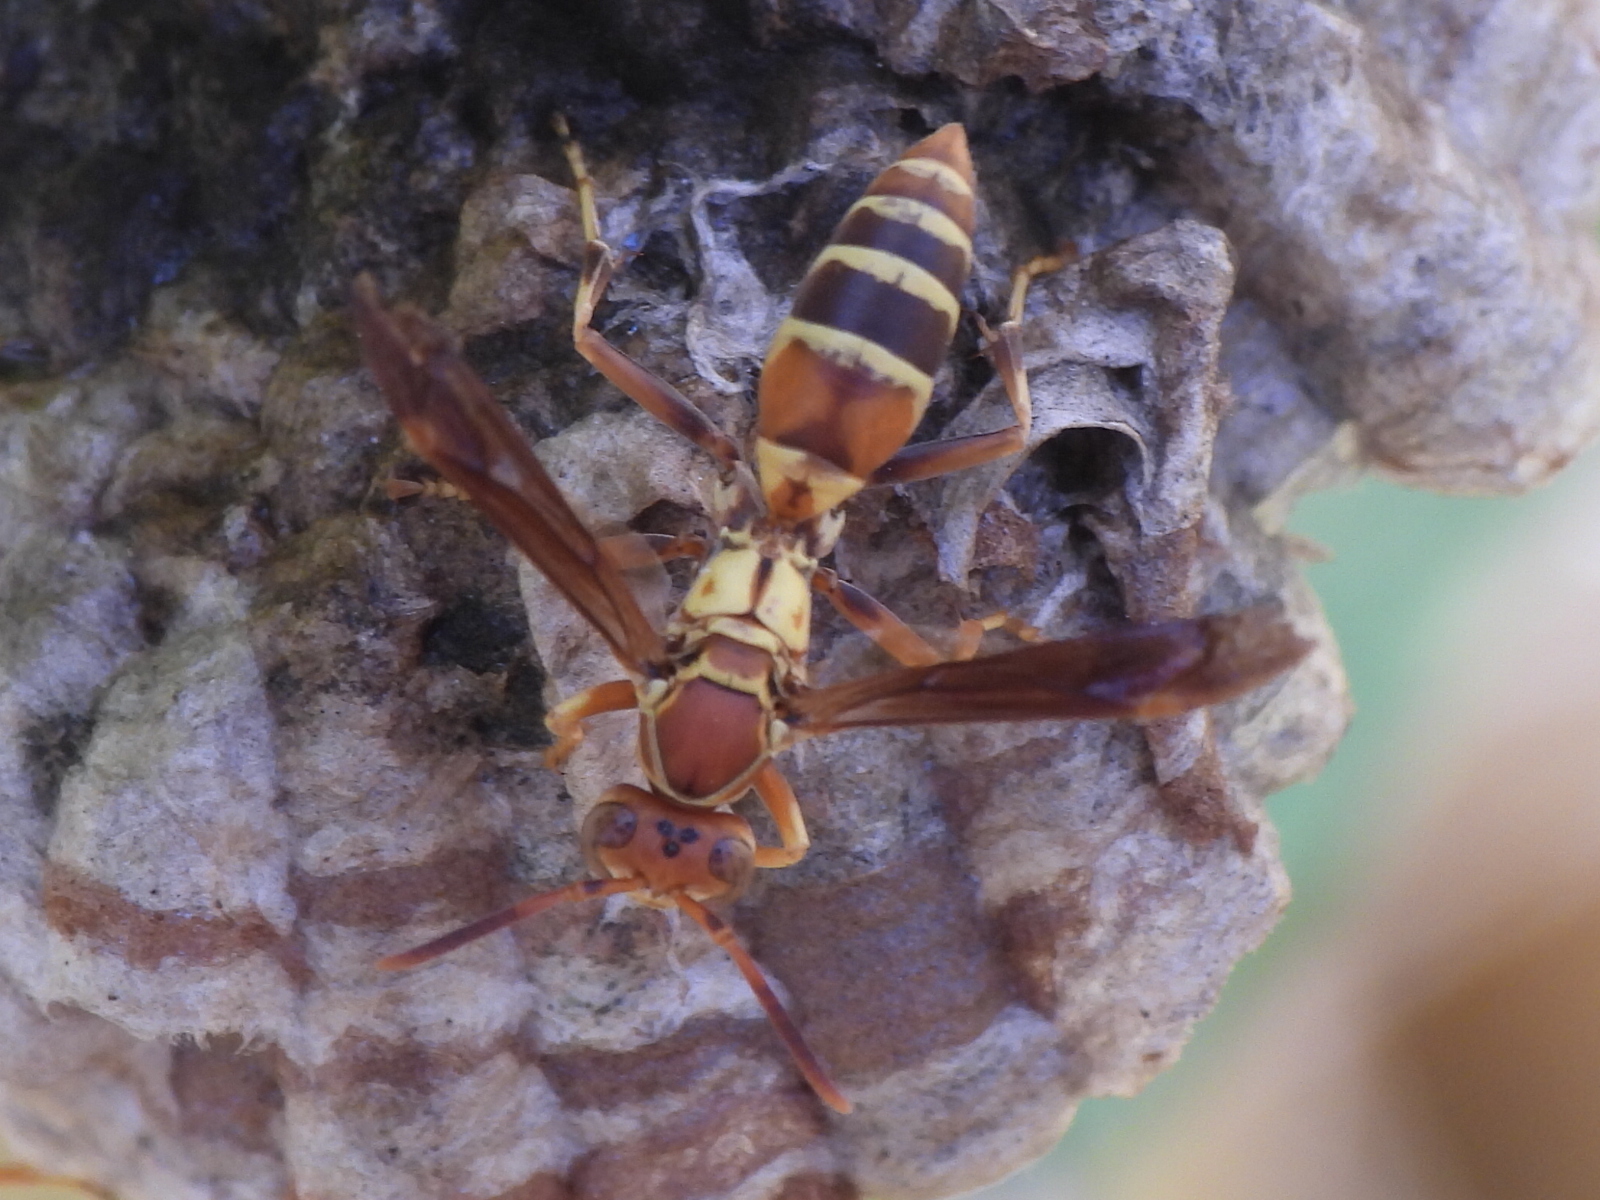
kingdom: Animalia
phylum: Arthropoda
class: Insecta
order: Hymenoptera
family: Eumenidae
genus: Polistes
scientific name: Polistes dorsalis
